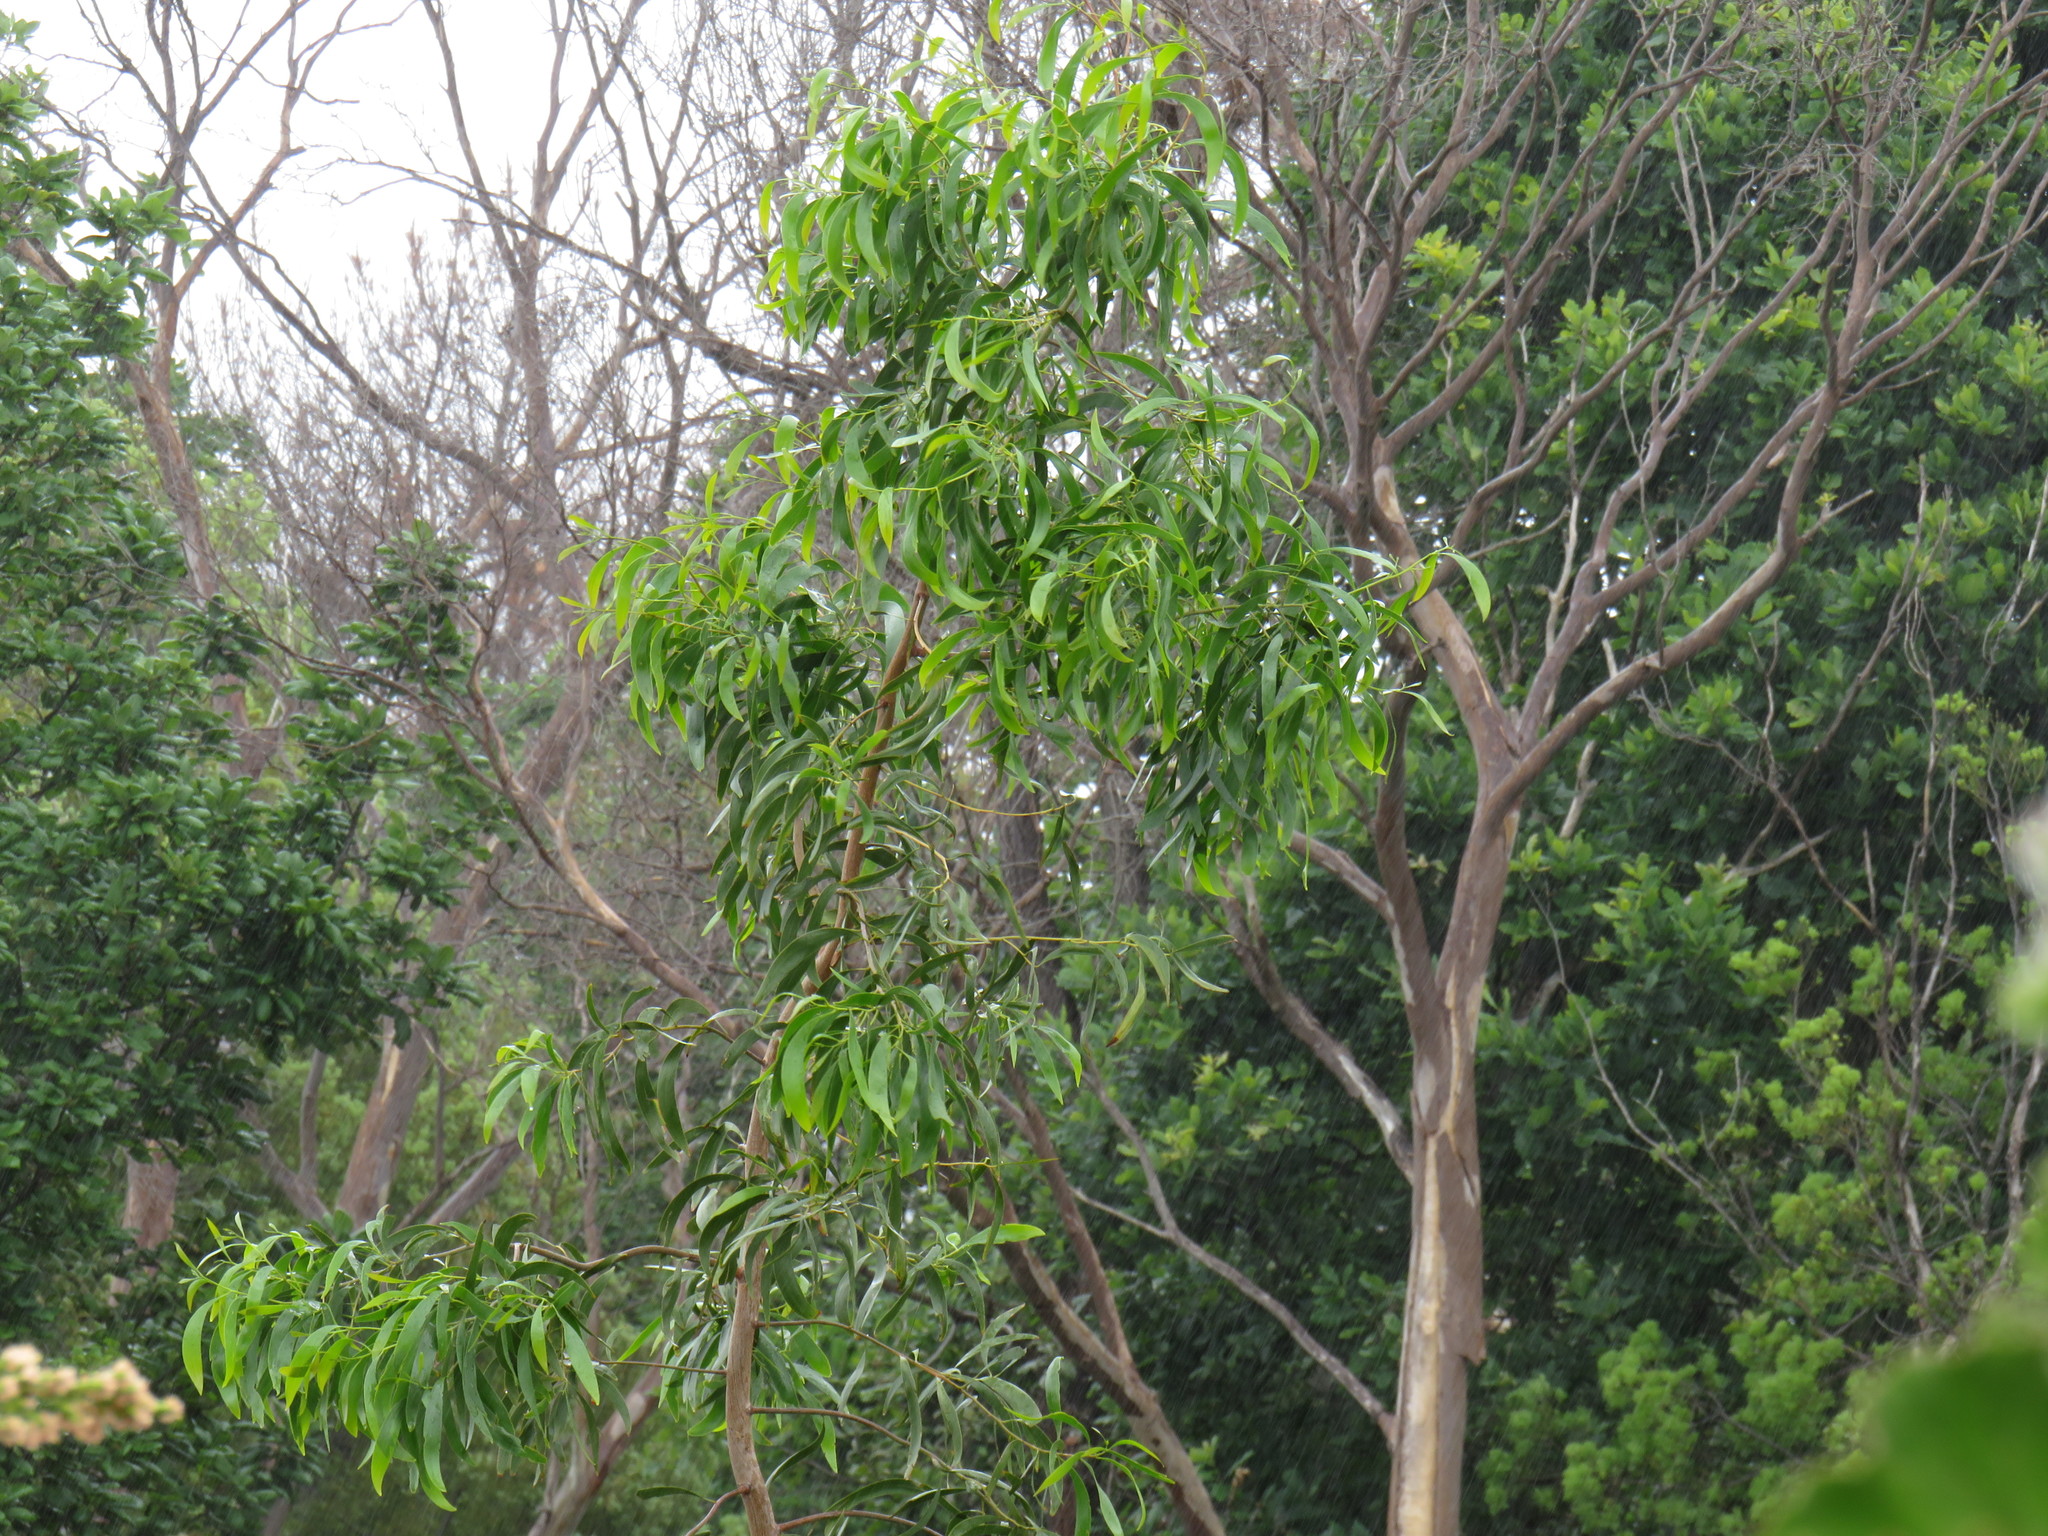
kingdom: Plantae
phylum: Tracheophyta
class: Magnoliopsida
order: Fabales
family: Fabaceae
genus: Acacia
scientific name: Acacia implexa
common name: Black wattle
